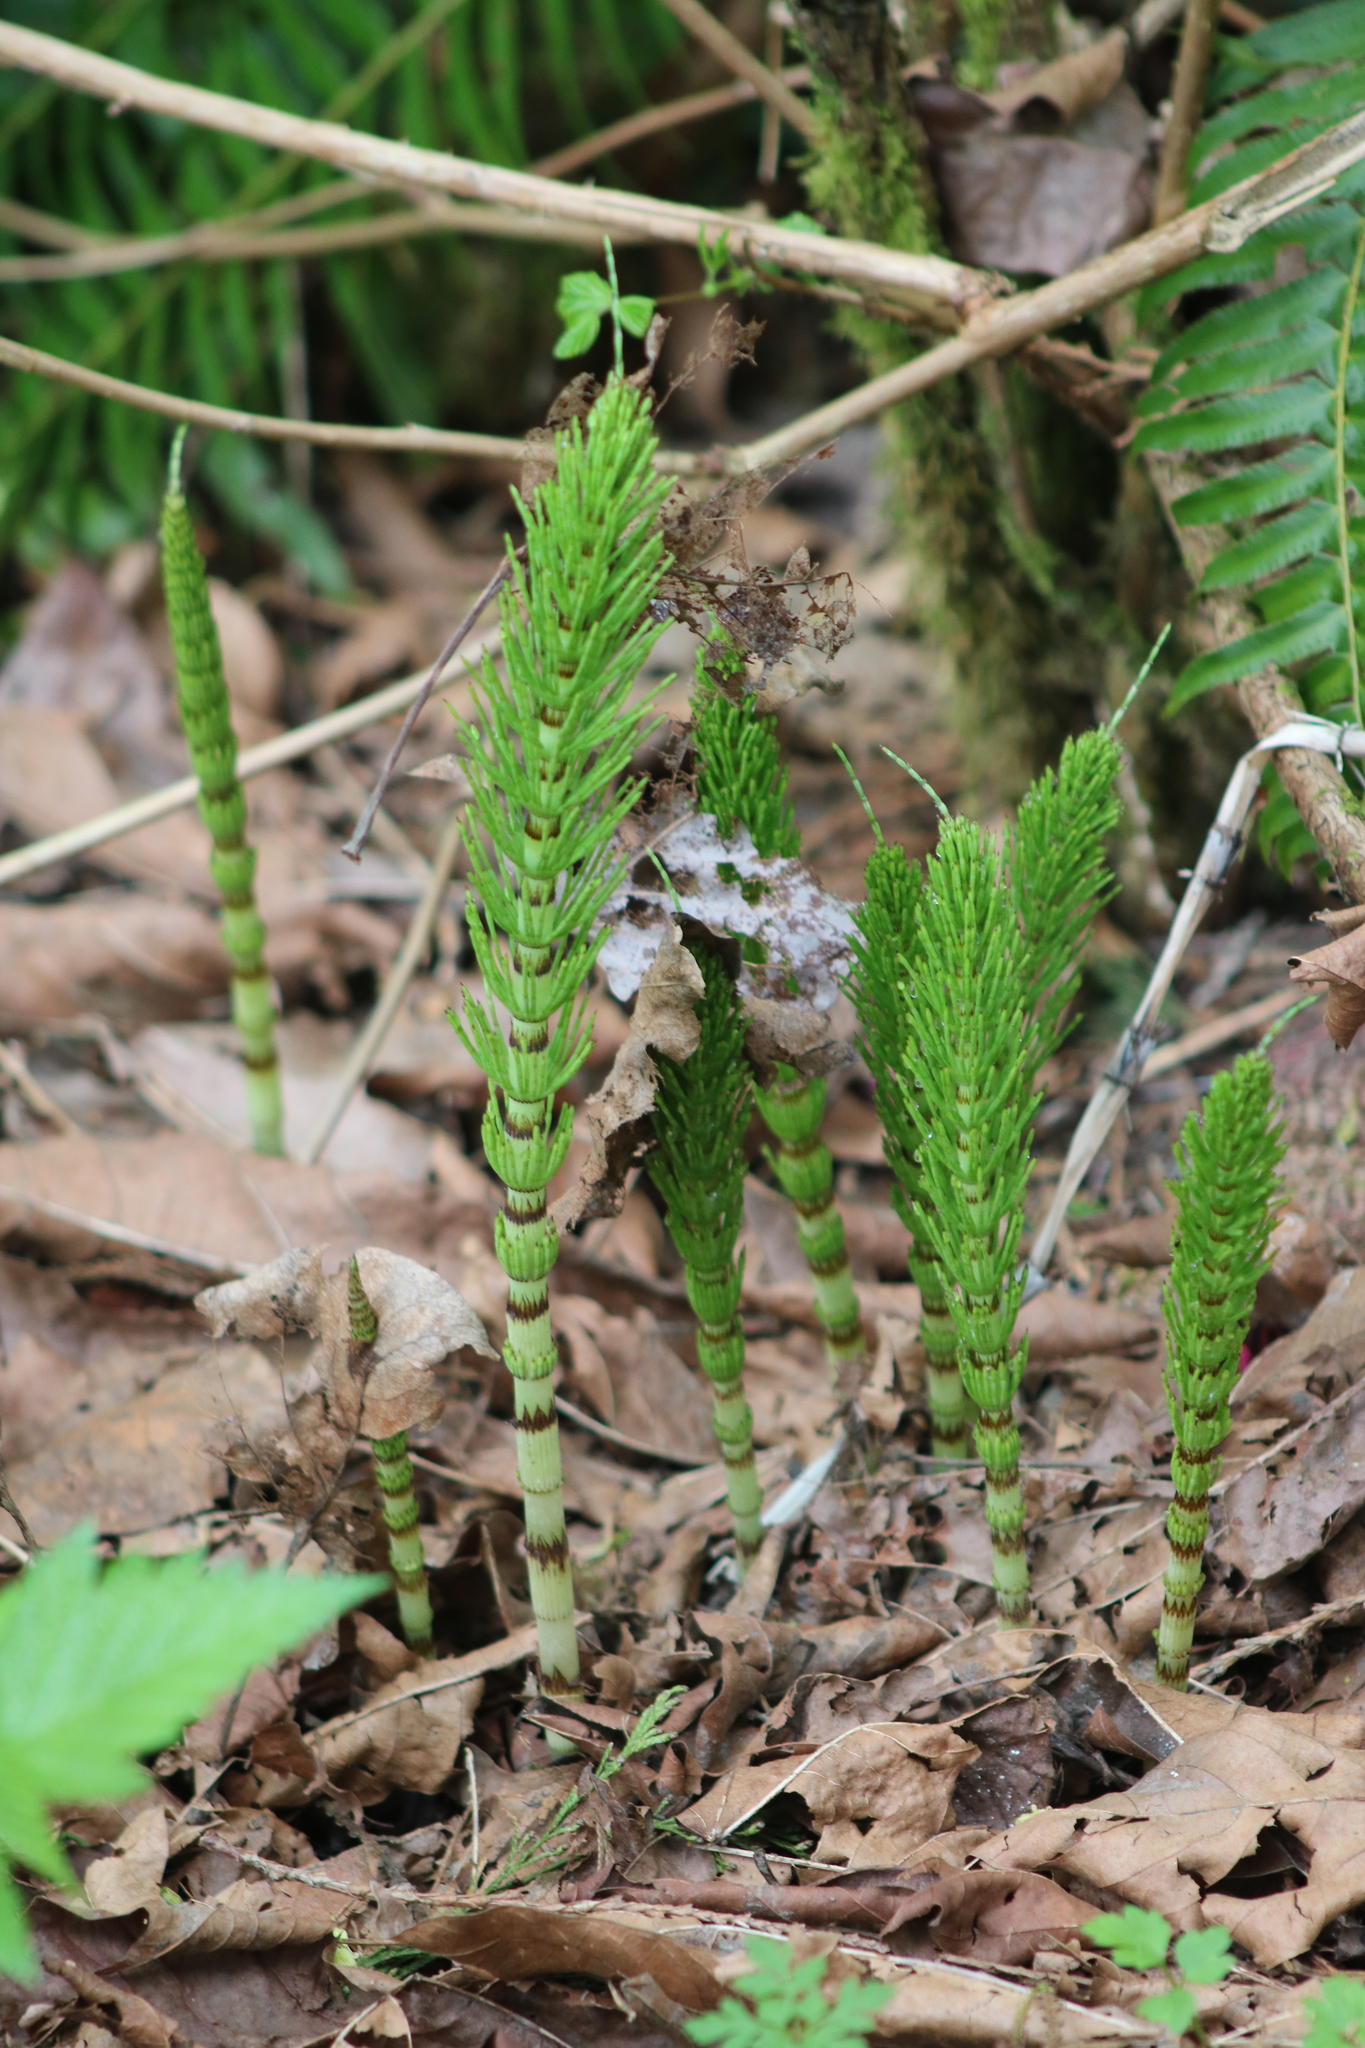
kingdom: Plantae
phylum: Tracheophyta
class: Polypodiopsida
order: Equisetales
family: Equisetaceae
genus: Equisetum
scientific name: Equisetum braunii
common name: Braun's horsetail
